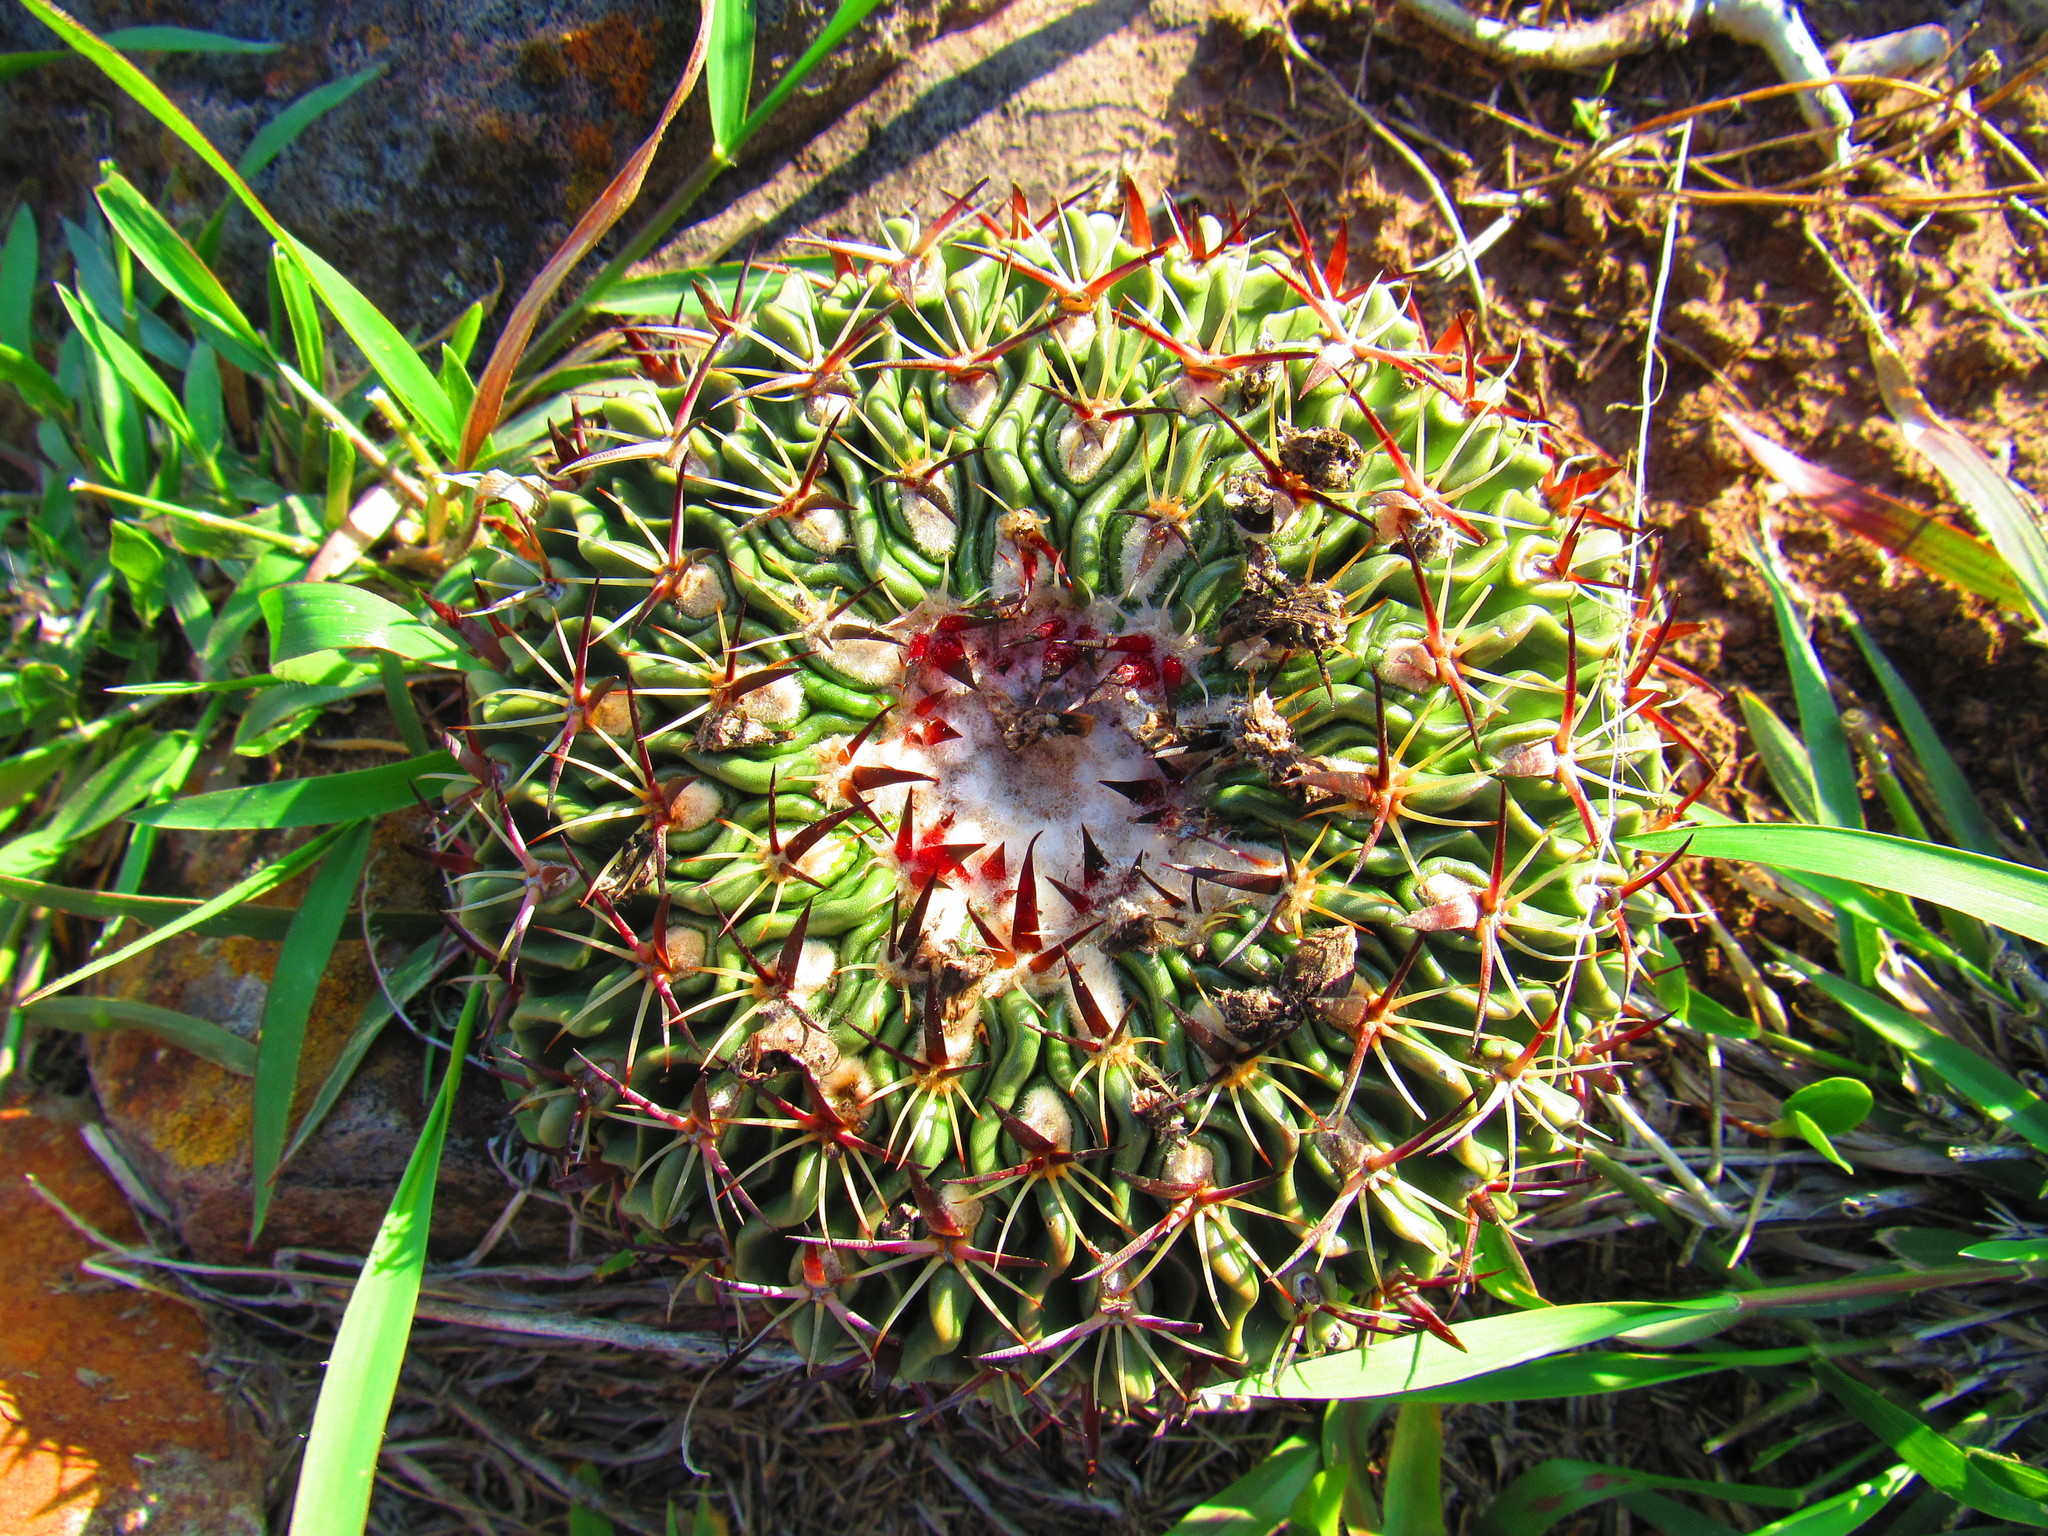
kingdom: Plantae
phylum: Tracheophyta
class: Magnoliopsida
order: Caryophyllales
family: Cactaceae
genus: Stenocactus
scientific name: Stenocactus crispatus
